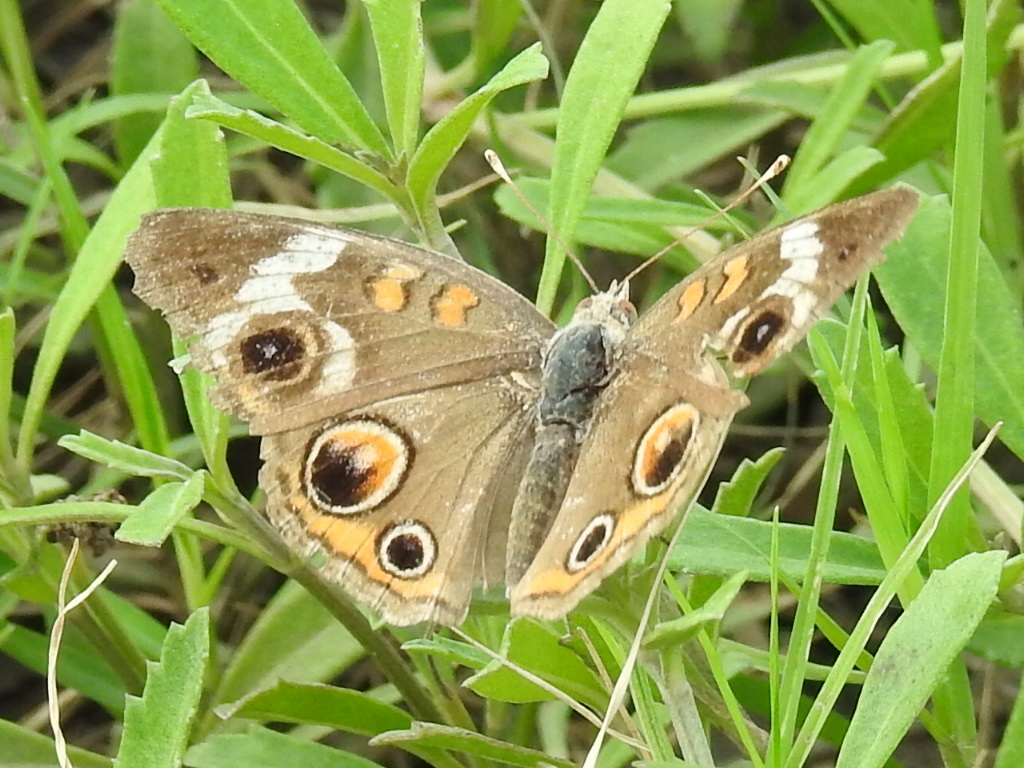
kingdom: Animalia
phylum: Arthropoda
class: Insecta
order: Lepidoptera
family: Nymphalidae
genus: Junonia
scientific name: Junonia coenia
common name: Common buckeye
